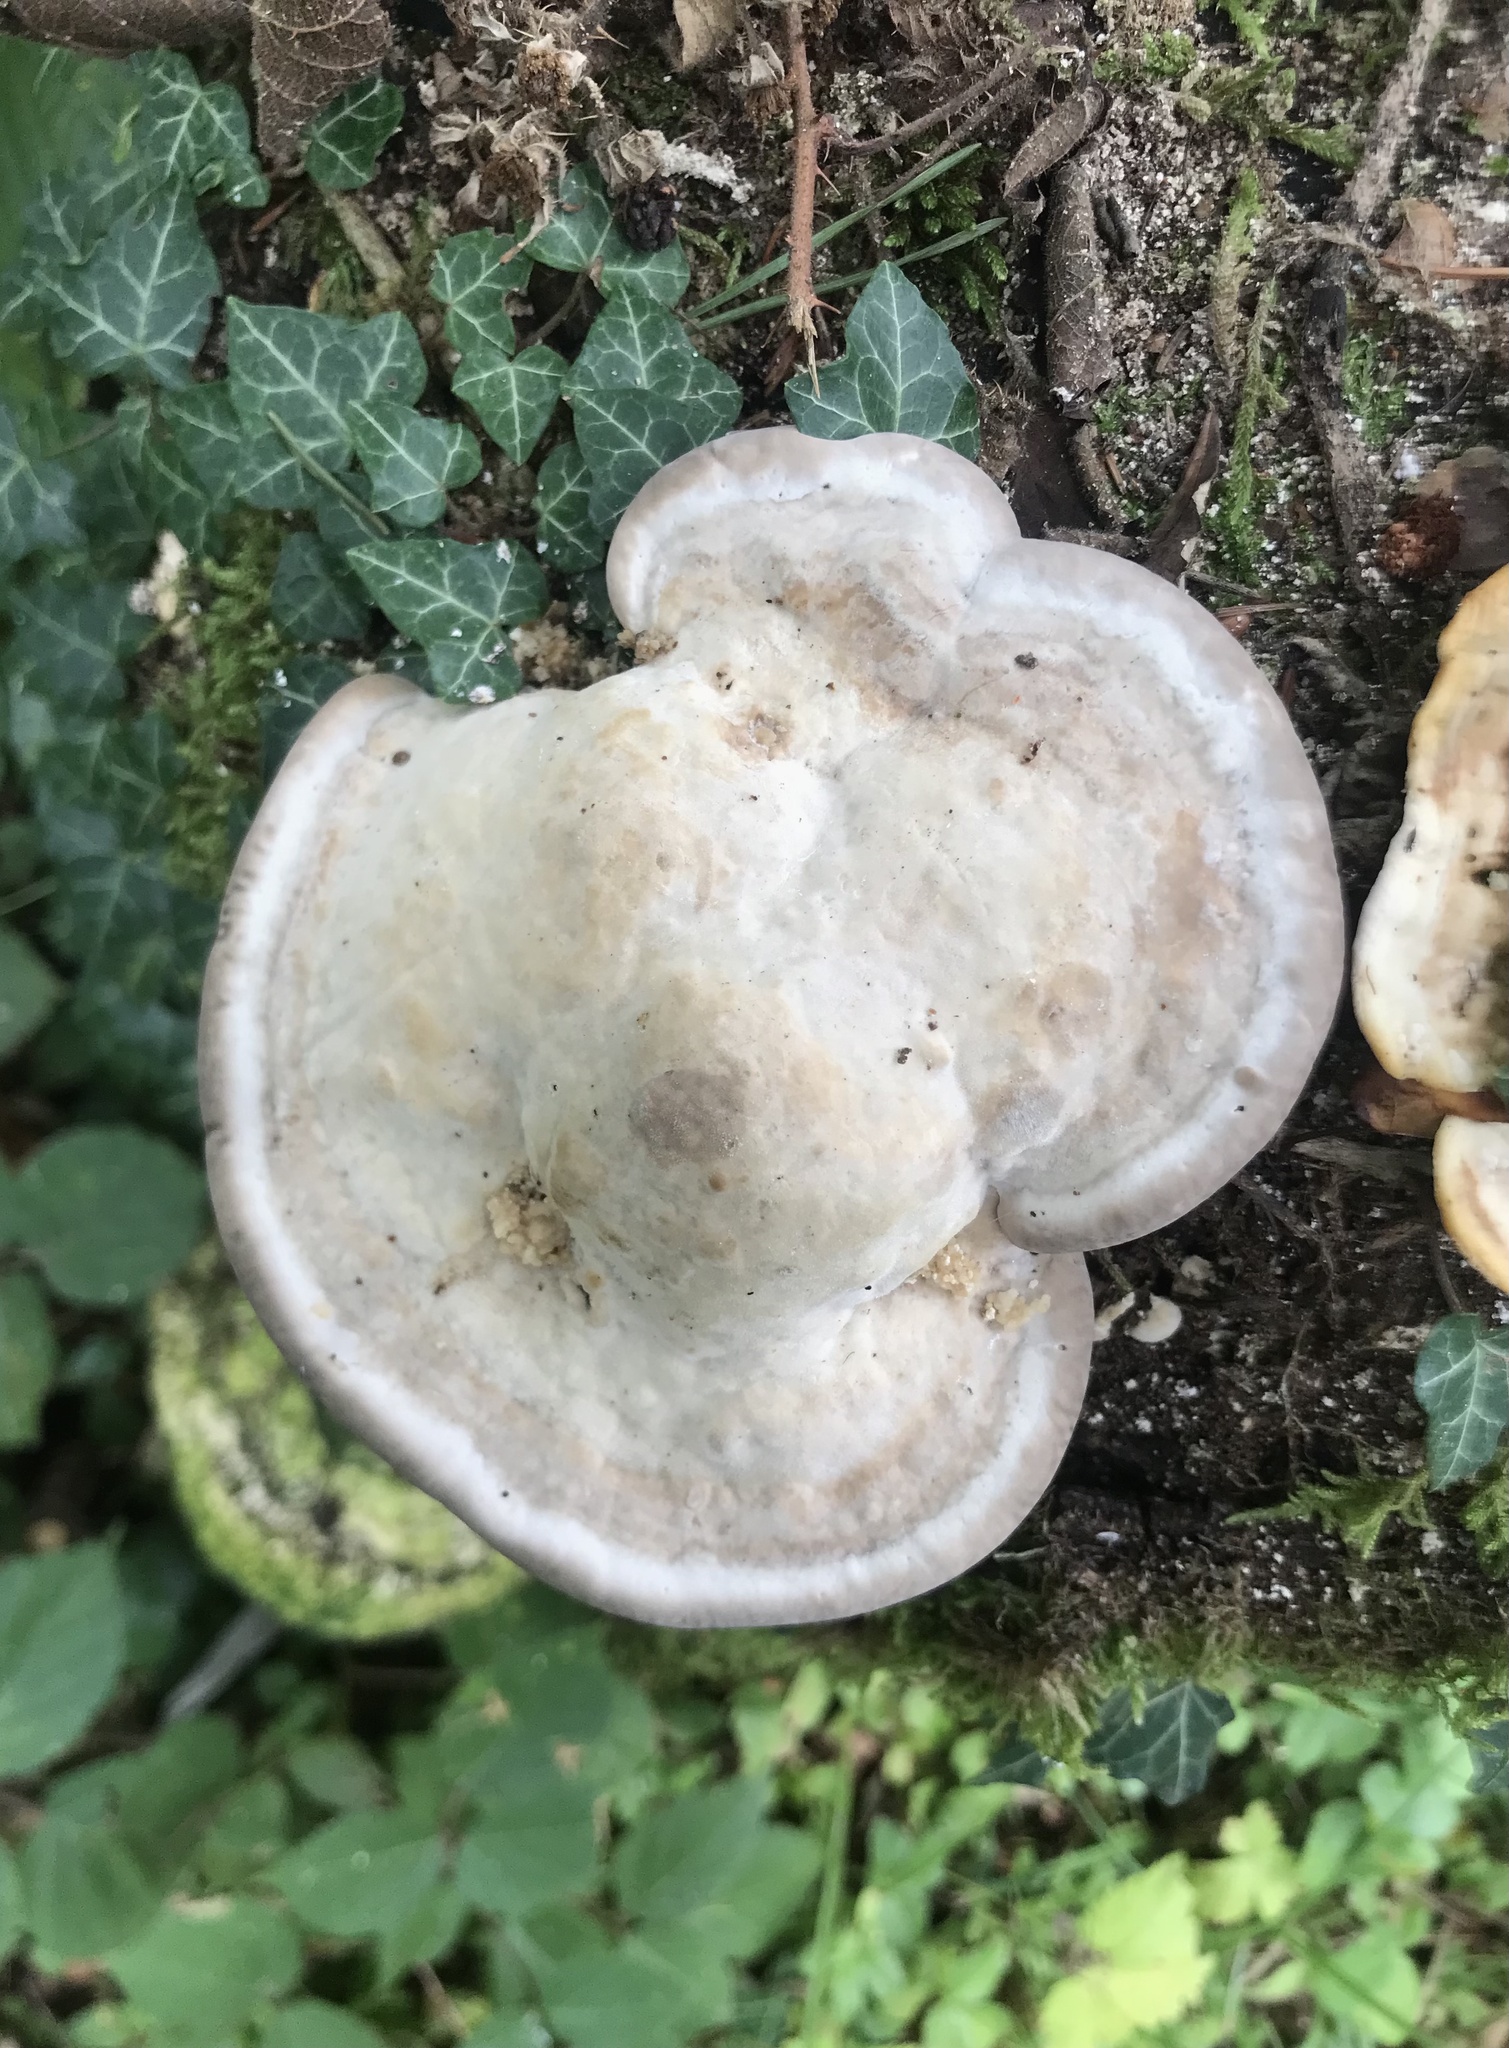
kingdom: Fungi
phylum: Basidiomycota
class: Agaricomycetes
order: Polyporales
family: Polyporaceae
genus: Trametes
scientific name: Trametes gibbosa
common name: Lumpy bracket
